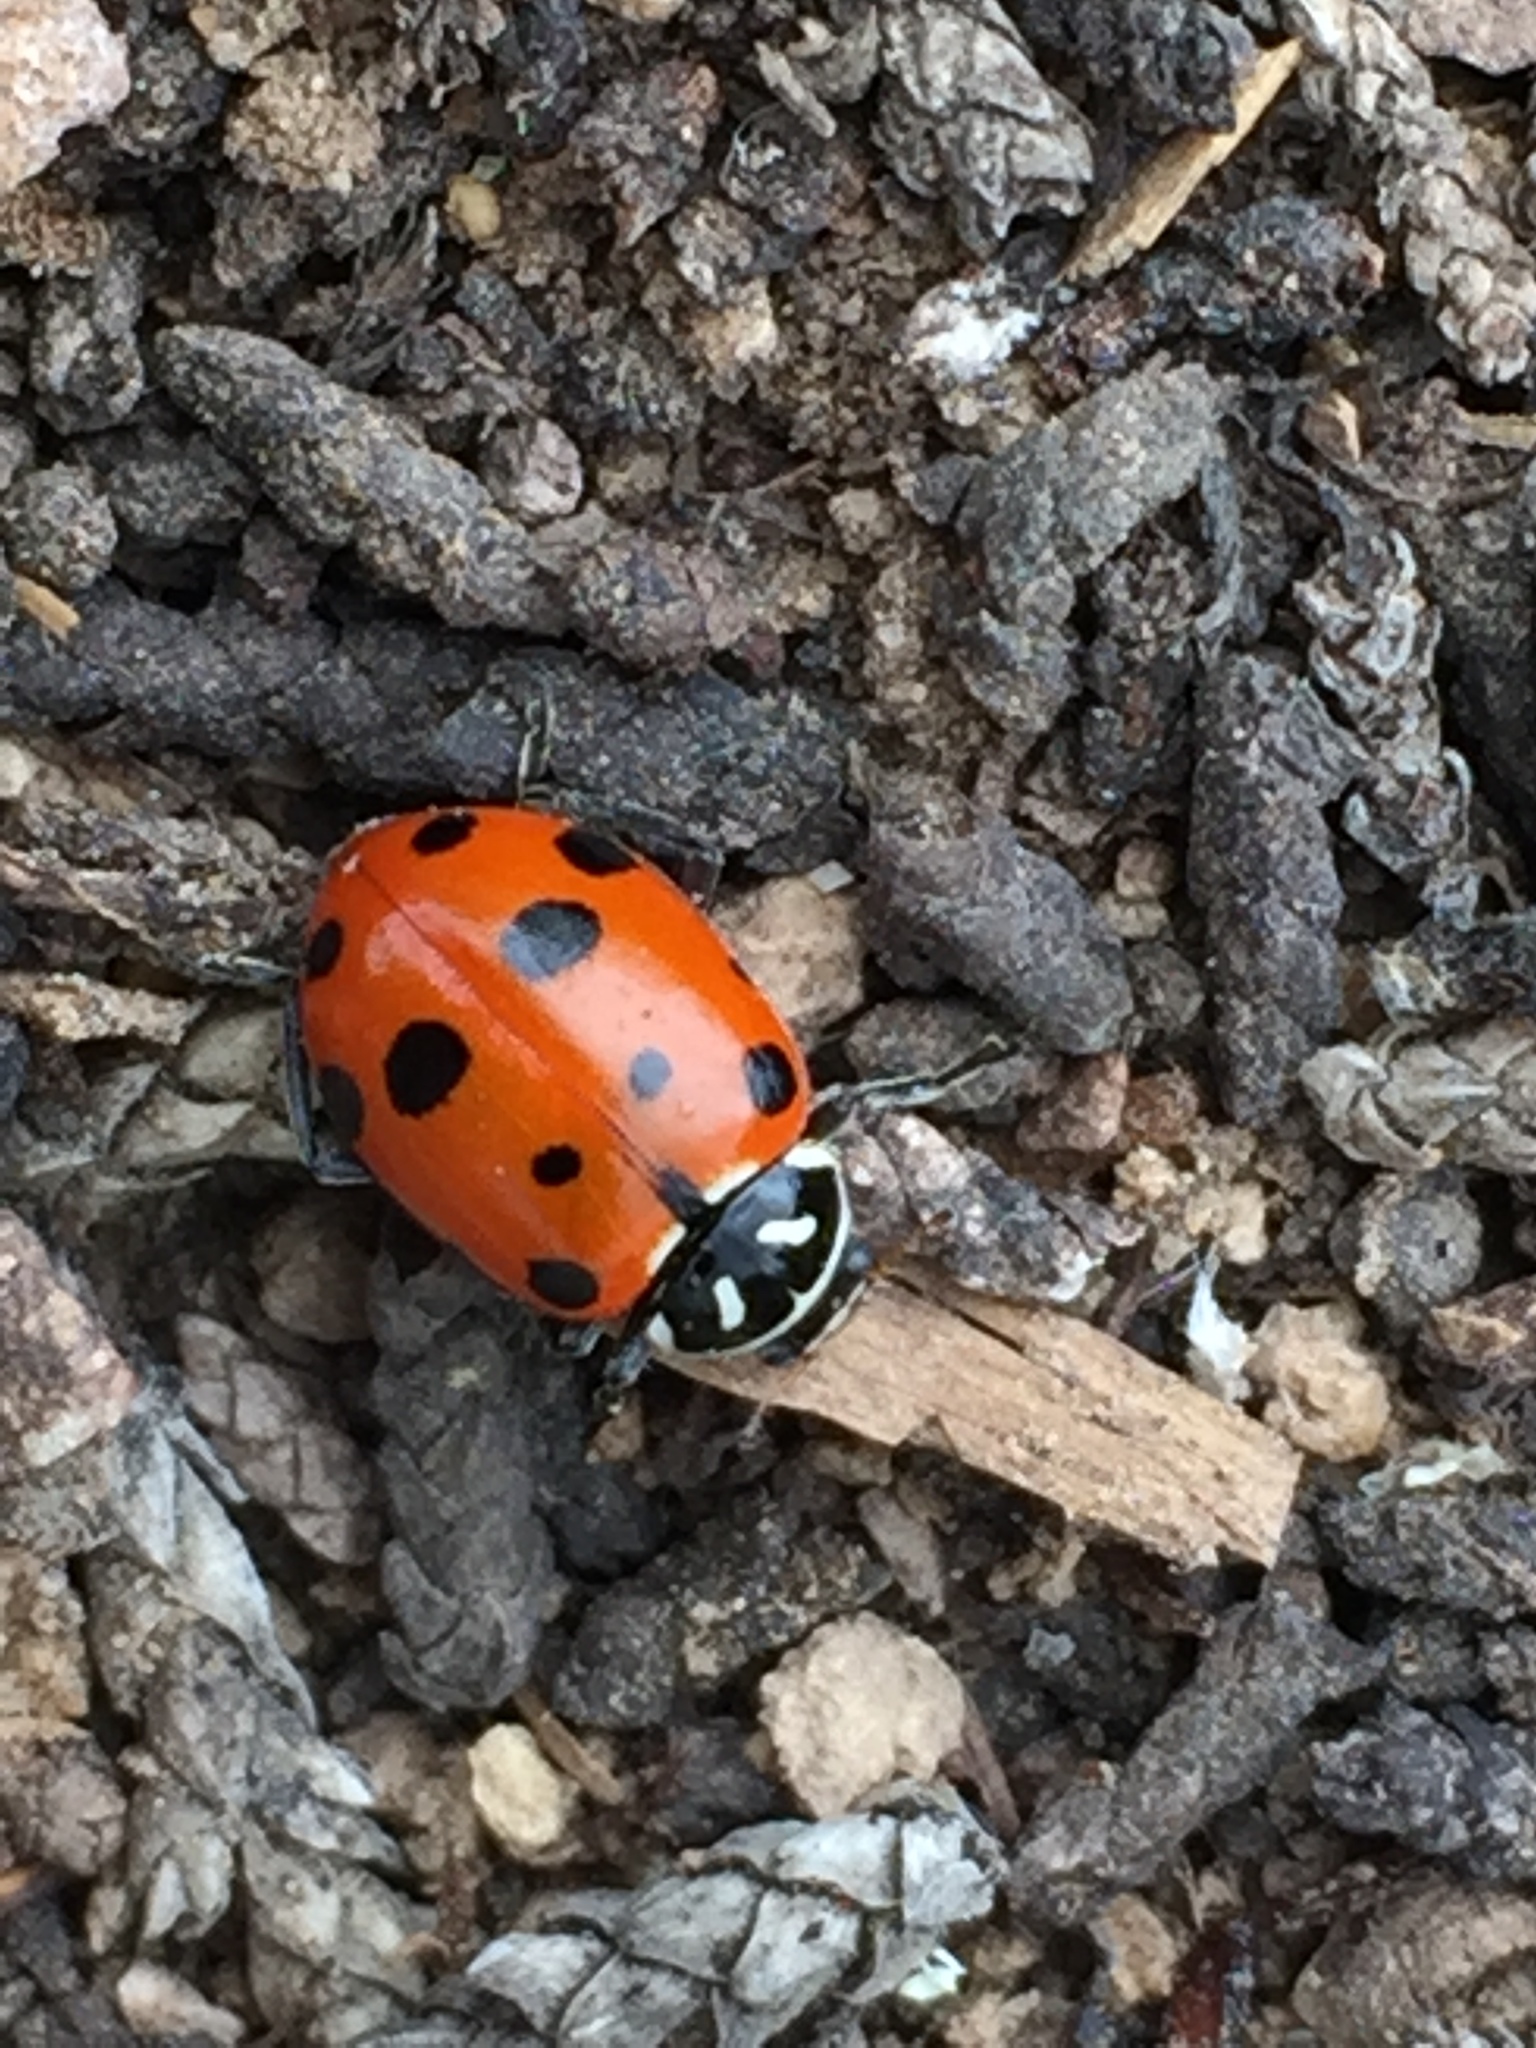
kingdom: Animalia
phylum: Arthropoda
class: Insecta
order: Coleoptera
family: Coccinellidae
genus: Hippodamia
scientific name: Hippodamia convergens
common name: Convergent lady beetle
